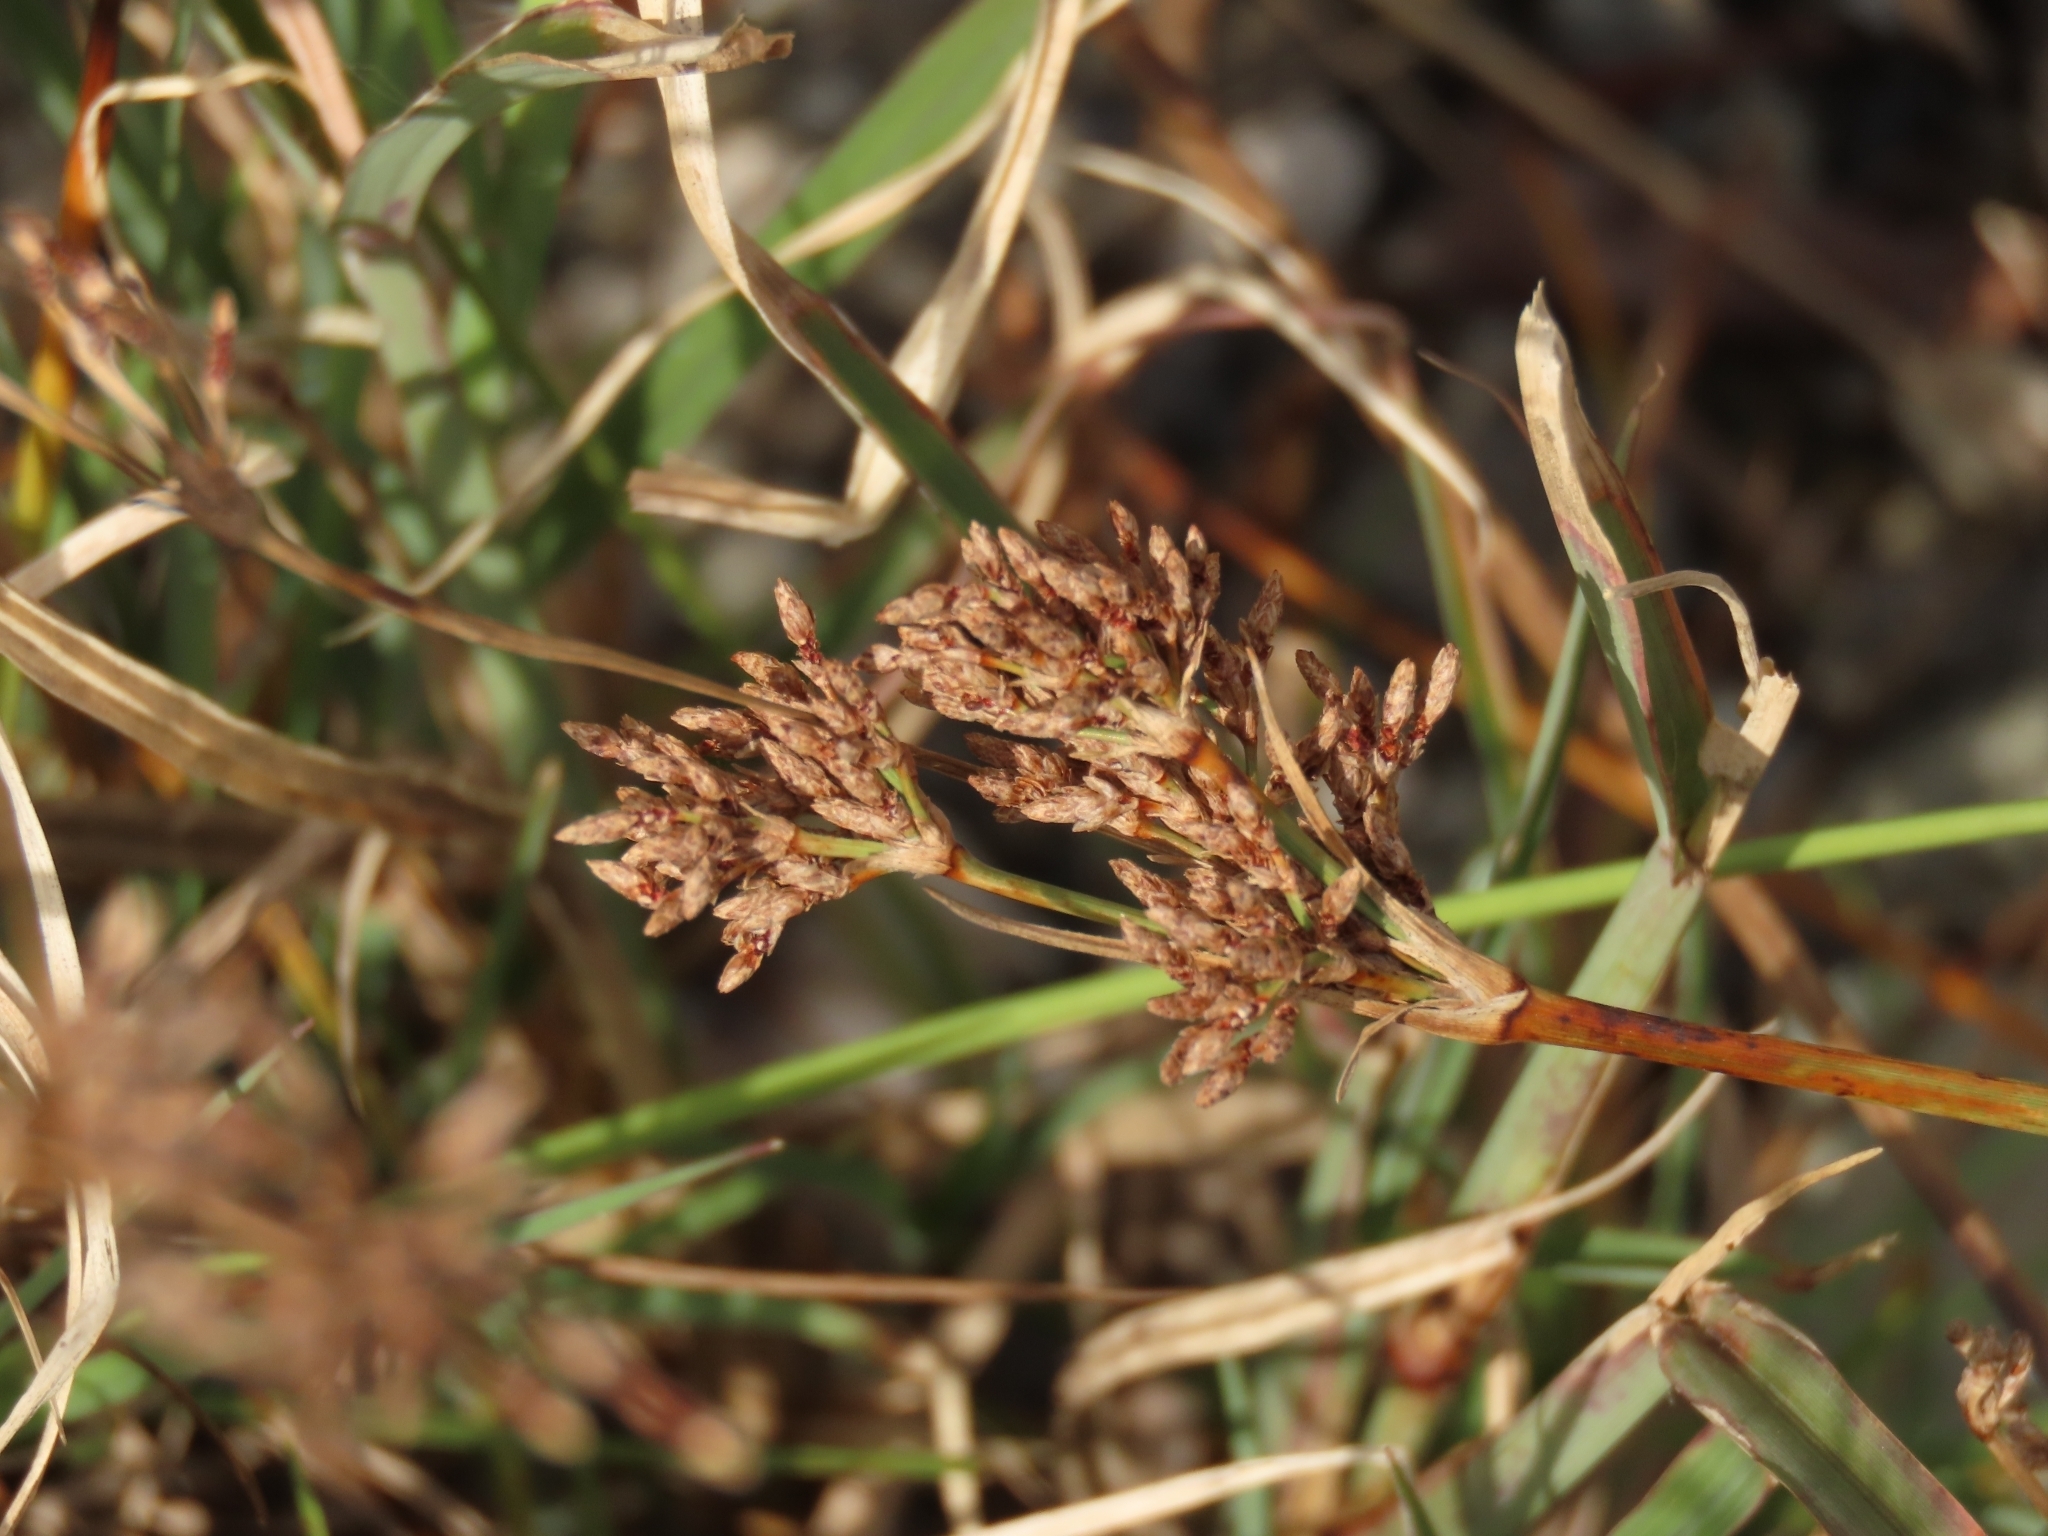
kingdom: Plantae
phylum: Tracheophyta
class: Liliopsida
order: Poales
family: Cyperaceae
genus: Fimbristylis
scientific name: Fimbristylis cymosa
